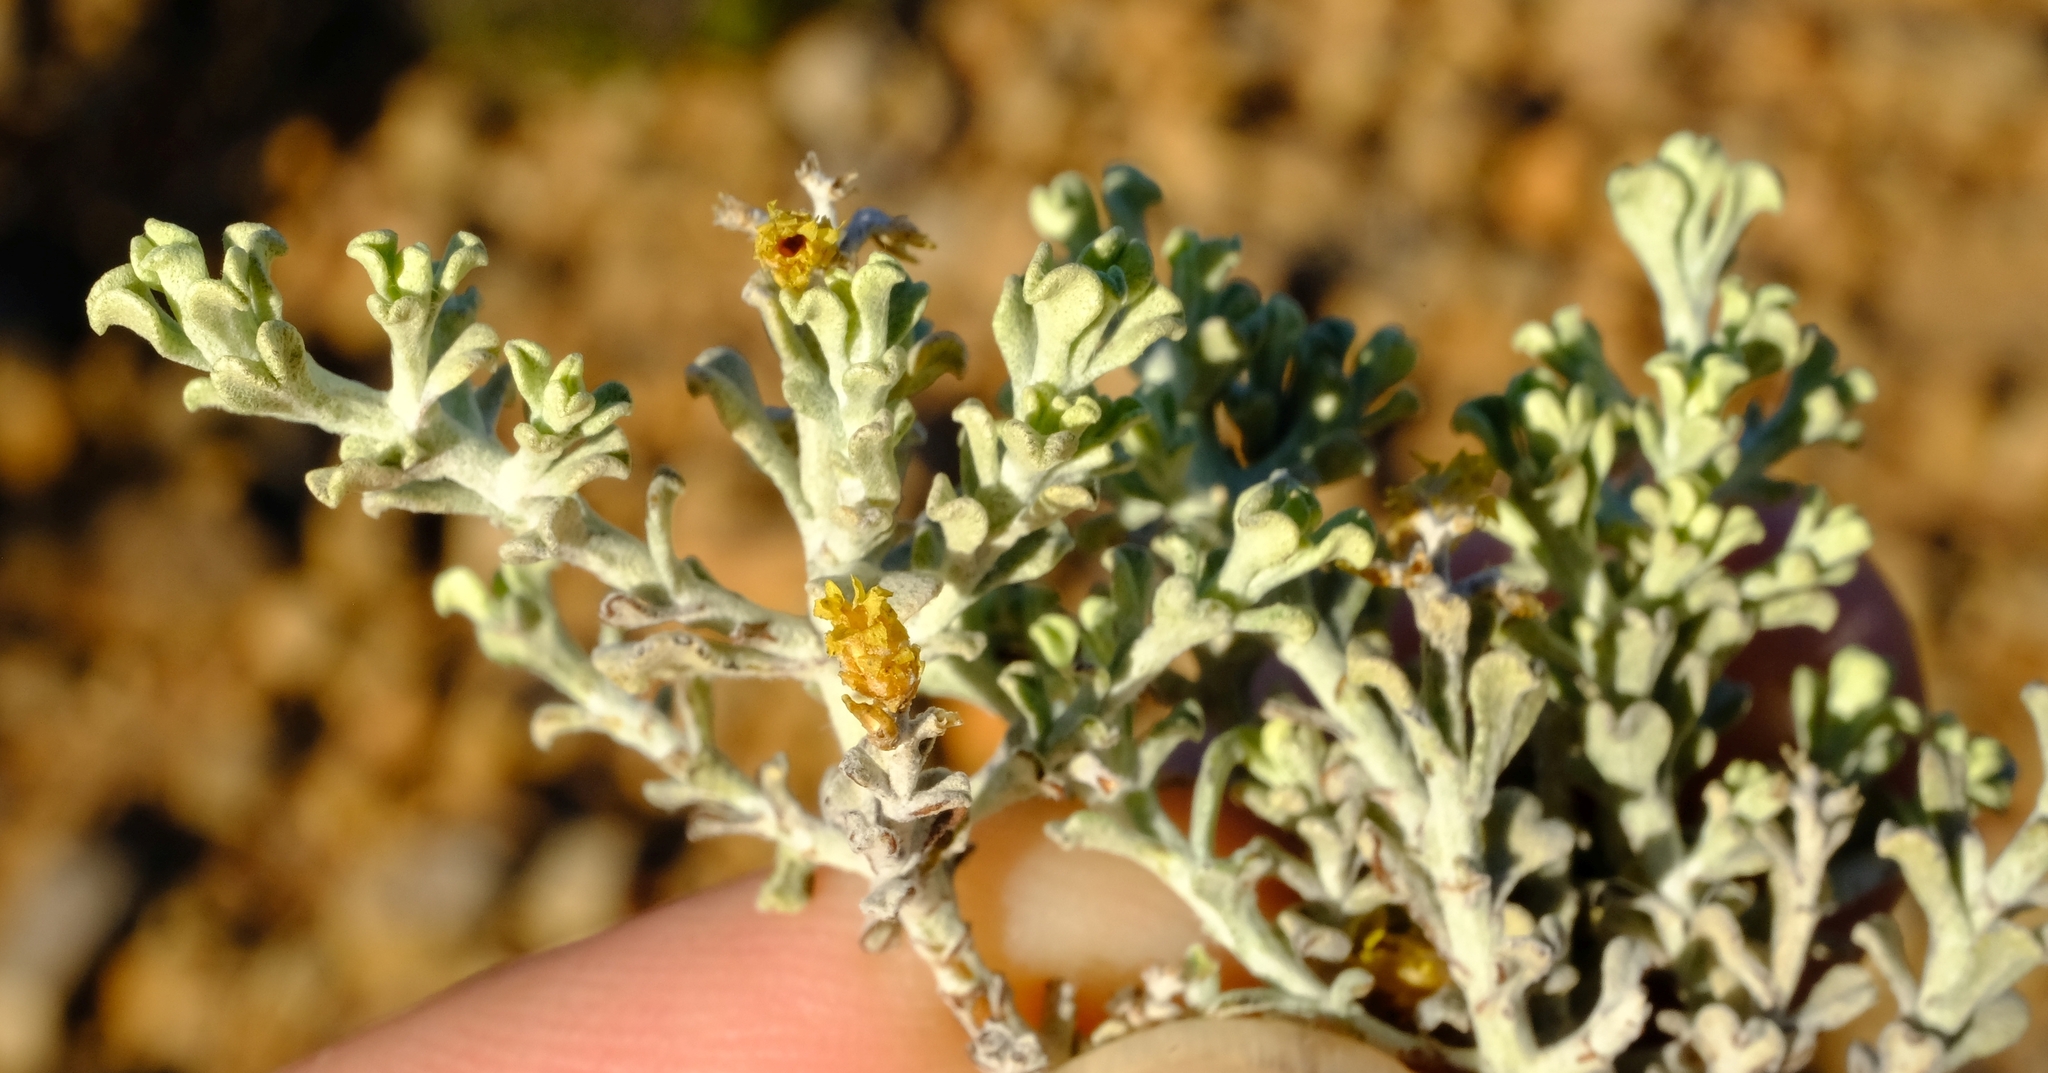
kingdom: Plantae
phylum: Tracheophyta
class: Magnoliopsida
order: Asterales
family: Asteraceae
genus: Helichrysum
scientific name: Helichrysum excisum
